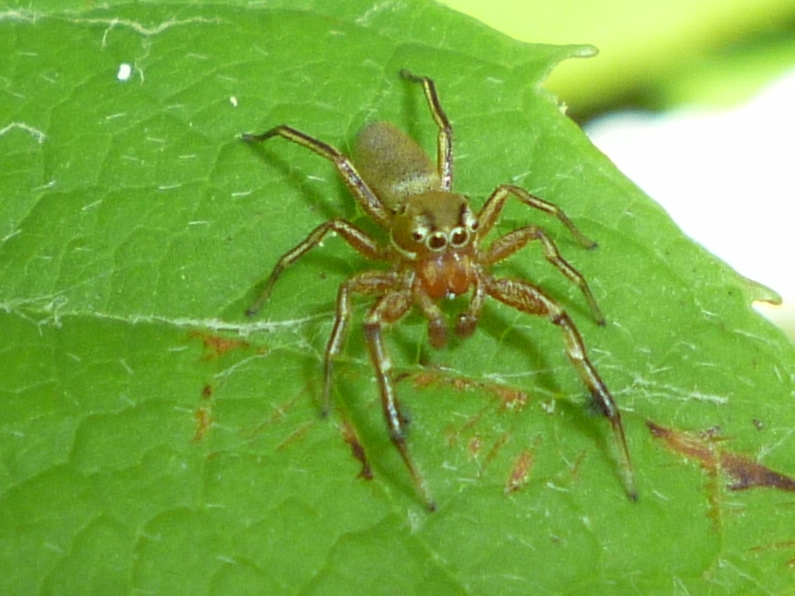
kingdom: Animalia
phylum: Arthropoda
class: Arachnida
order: Araneae
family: Salticidae
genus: Tutelina
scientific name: Tutelina elegans
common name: Thin-spined jumping spider
